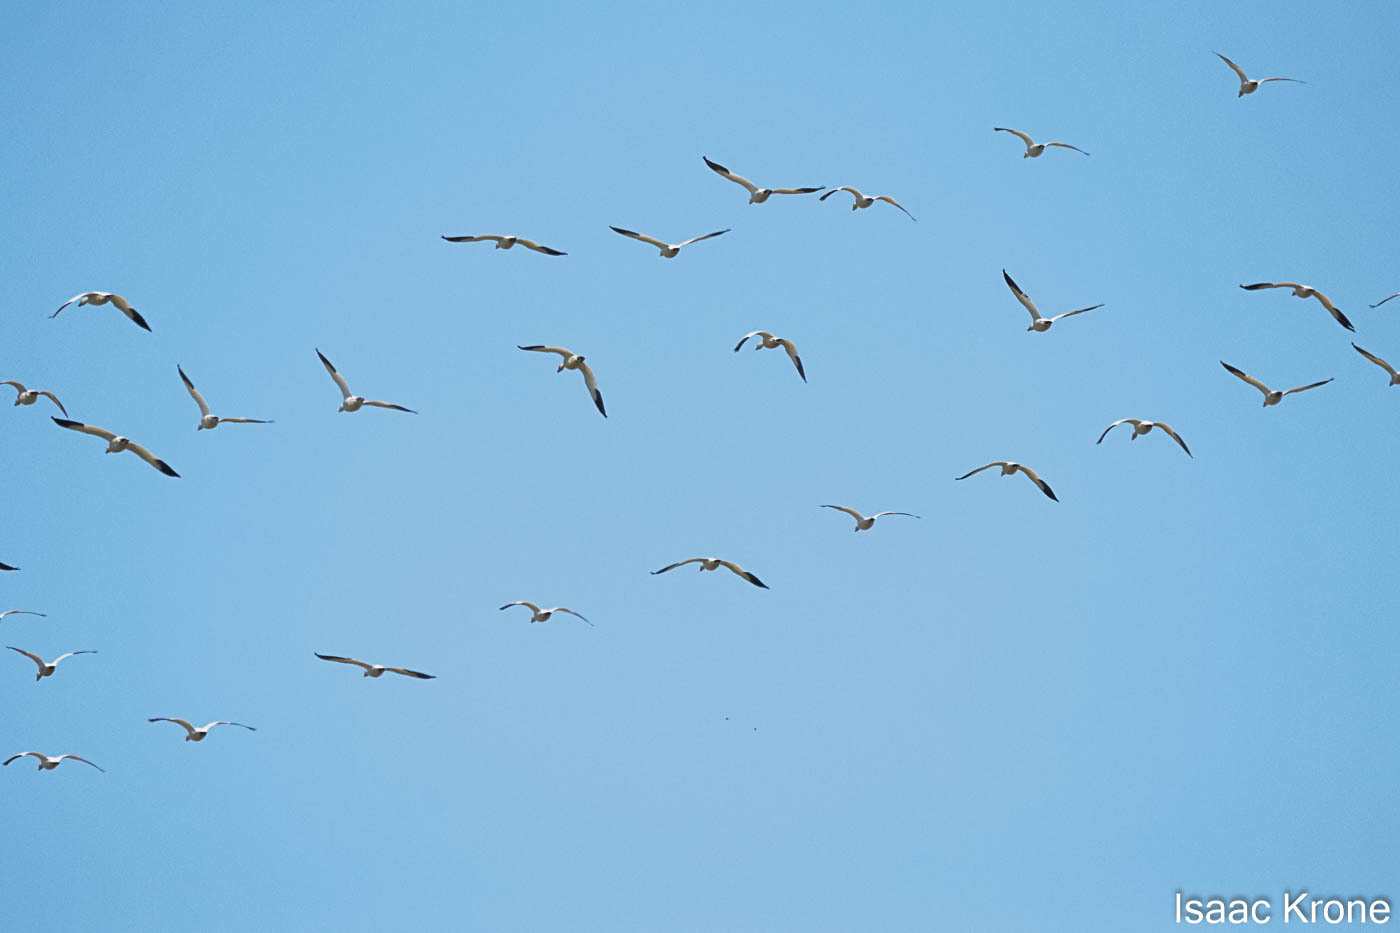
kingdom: Animalia
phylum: Chordata
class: Aves
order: Anseriformes
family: Anatidae
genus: Anser
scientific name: Anser caerulescens
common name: Snow goose
